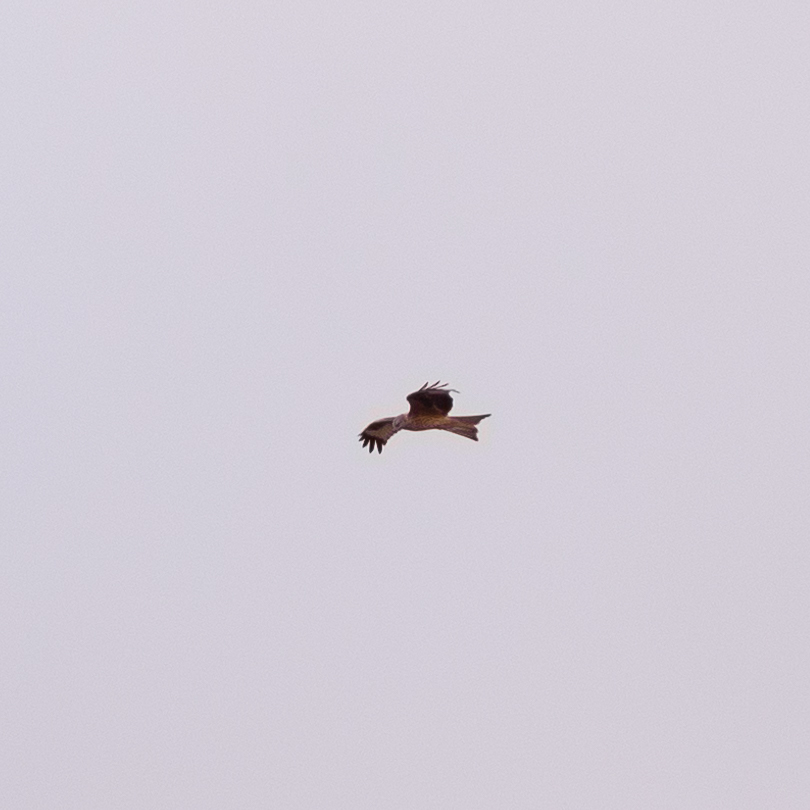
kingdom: Animalia
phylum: Chordata
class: Aves
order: Accipitriformes
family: Accipitridae
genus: Milvus
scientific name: Milvus milvus
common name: Red kite
